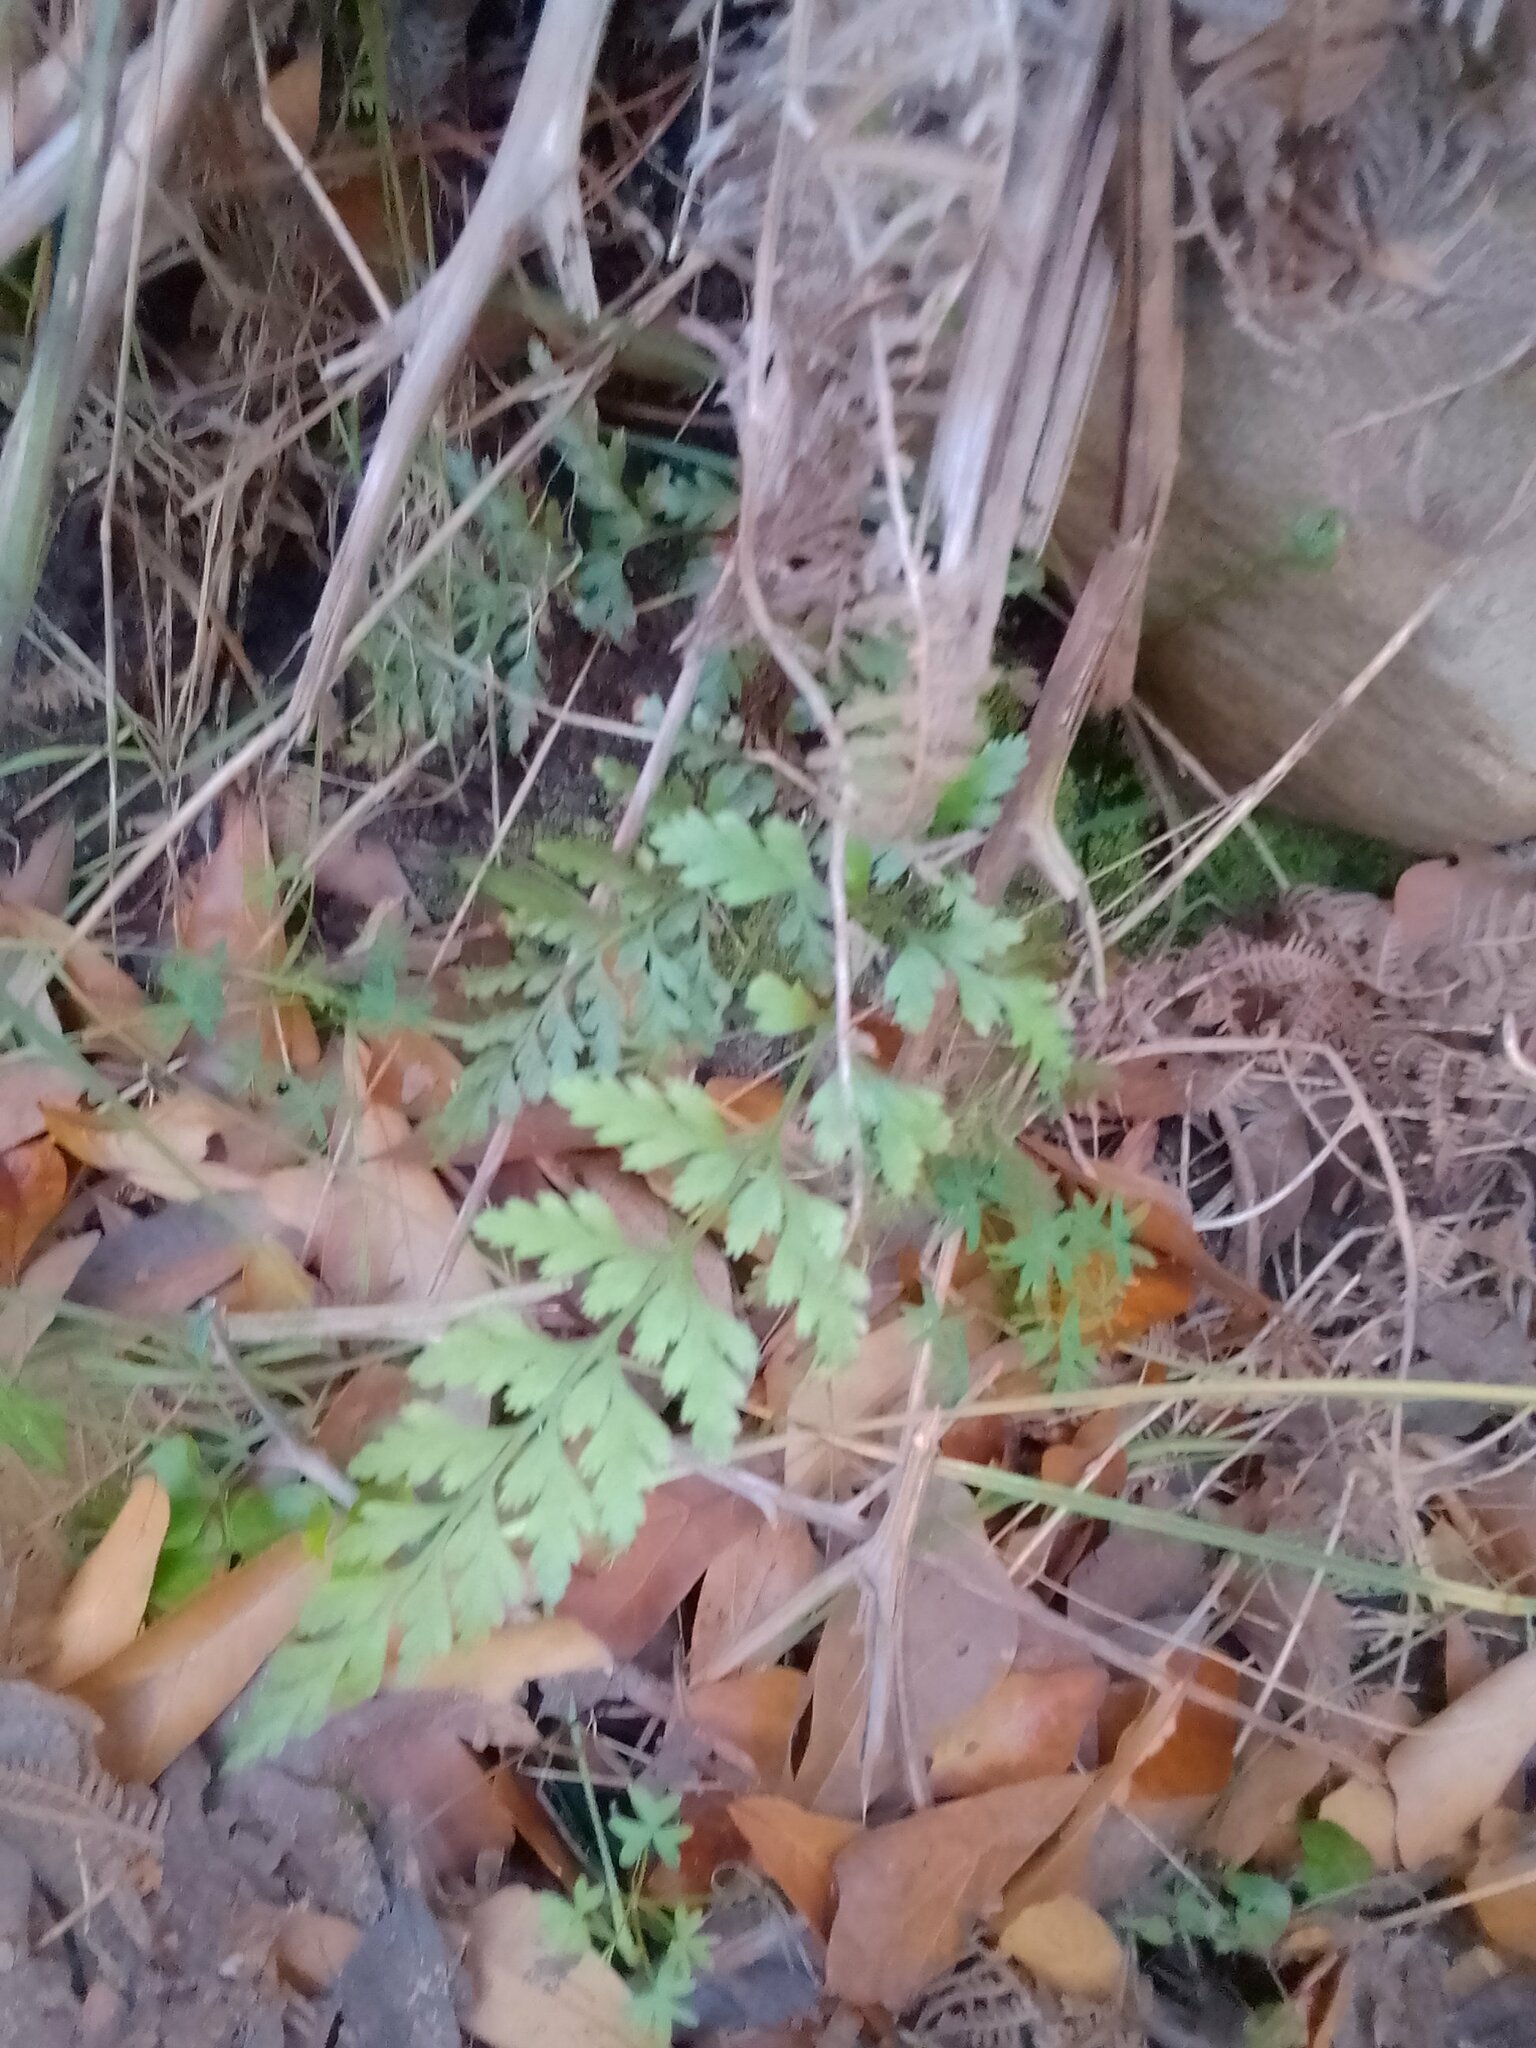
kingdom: Plantae
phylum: Tracheophyta
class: Polypodiopsida
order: Polypodiales
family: Aspleniaceae
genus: Asplenium
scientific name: Asplenium adiantum-nigrum
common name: Black spleenwort
